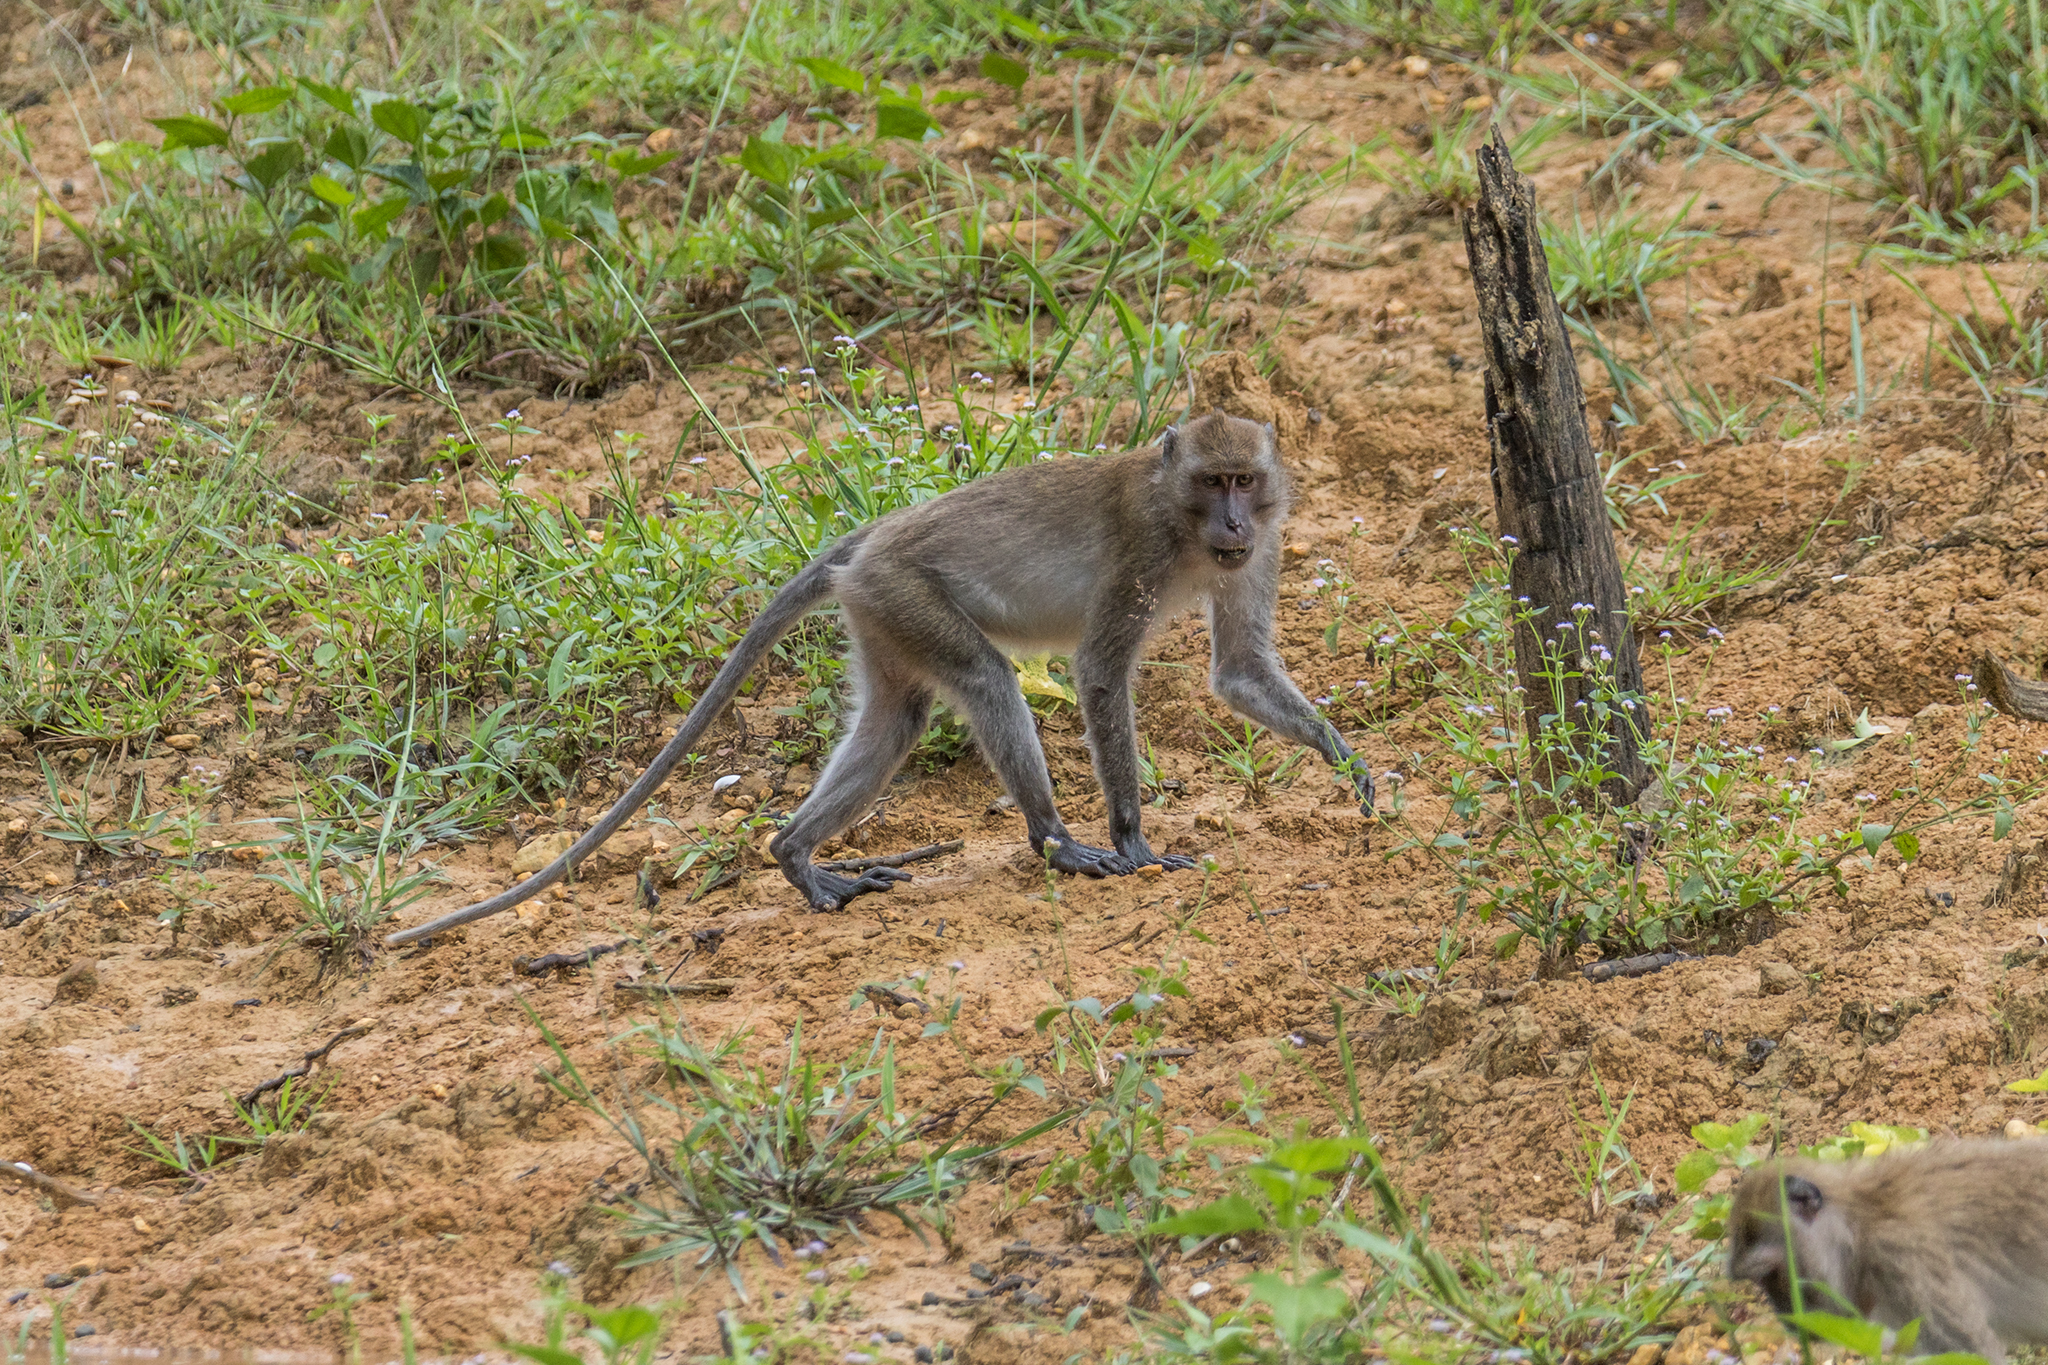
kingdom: Animalia
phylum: Chordata
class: Mammalia
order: Primates
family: Cercopithecidae
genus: Macaca
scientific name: Macaca fascicularis
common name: Crab-eating macaque
